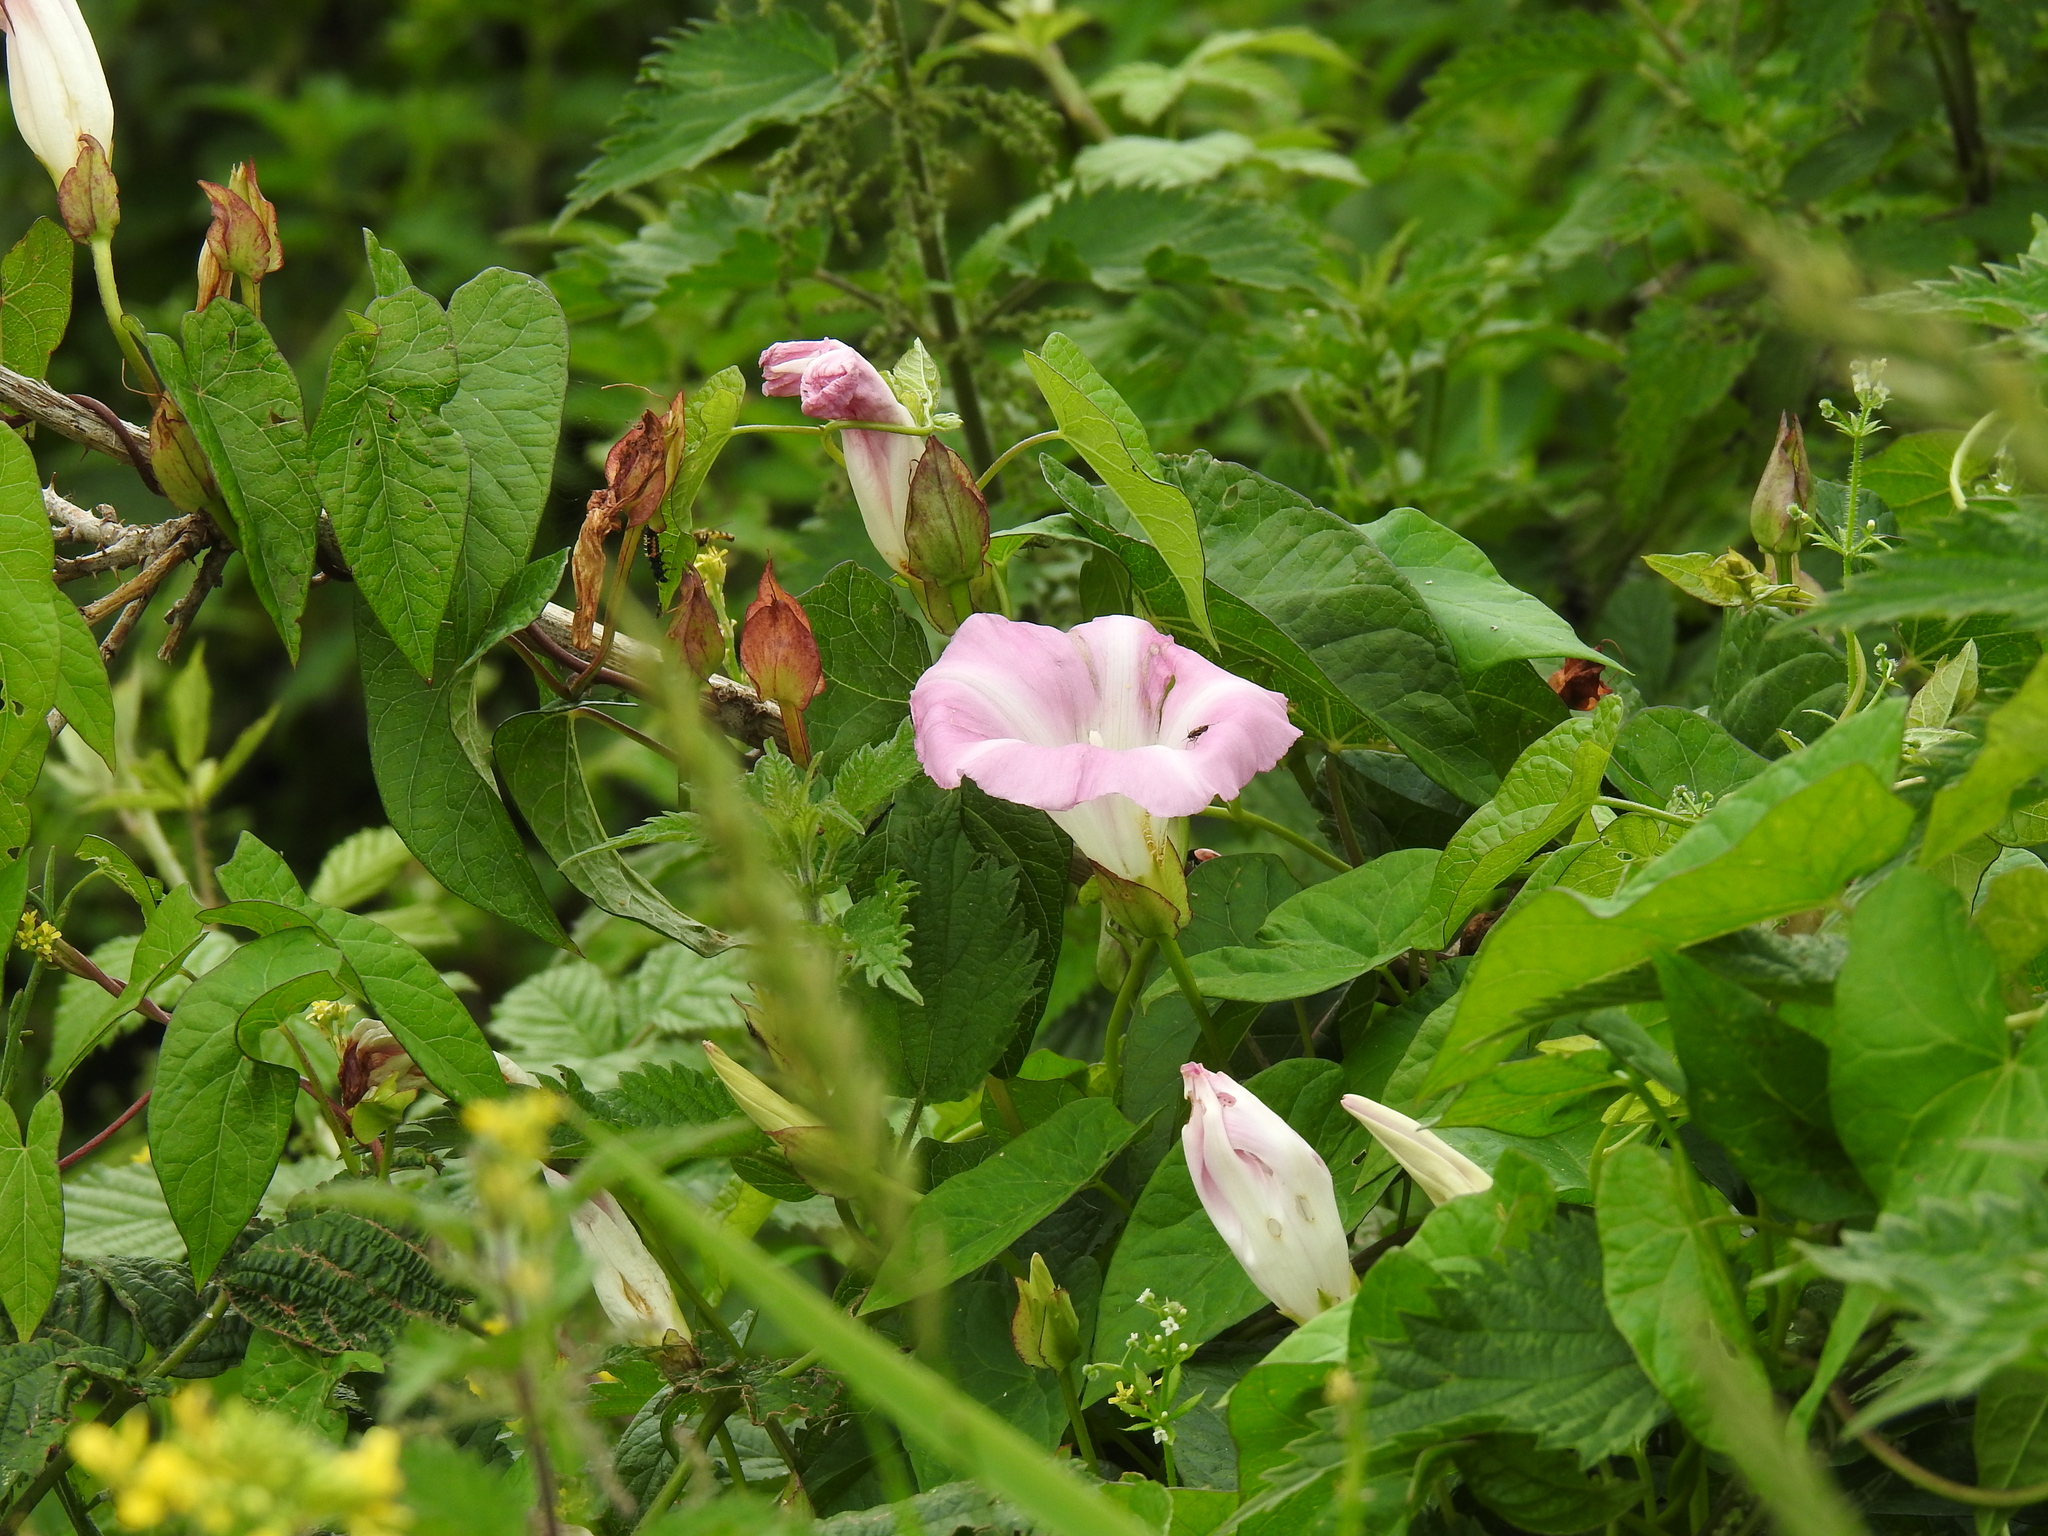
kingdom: Plantae
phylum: Tracheophyta
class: Magnoliopsida
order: Solanales
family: Convolvulaceae
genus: Calystegia
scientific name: Calystegia sepium
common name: Hedge bindweed
